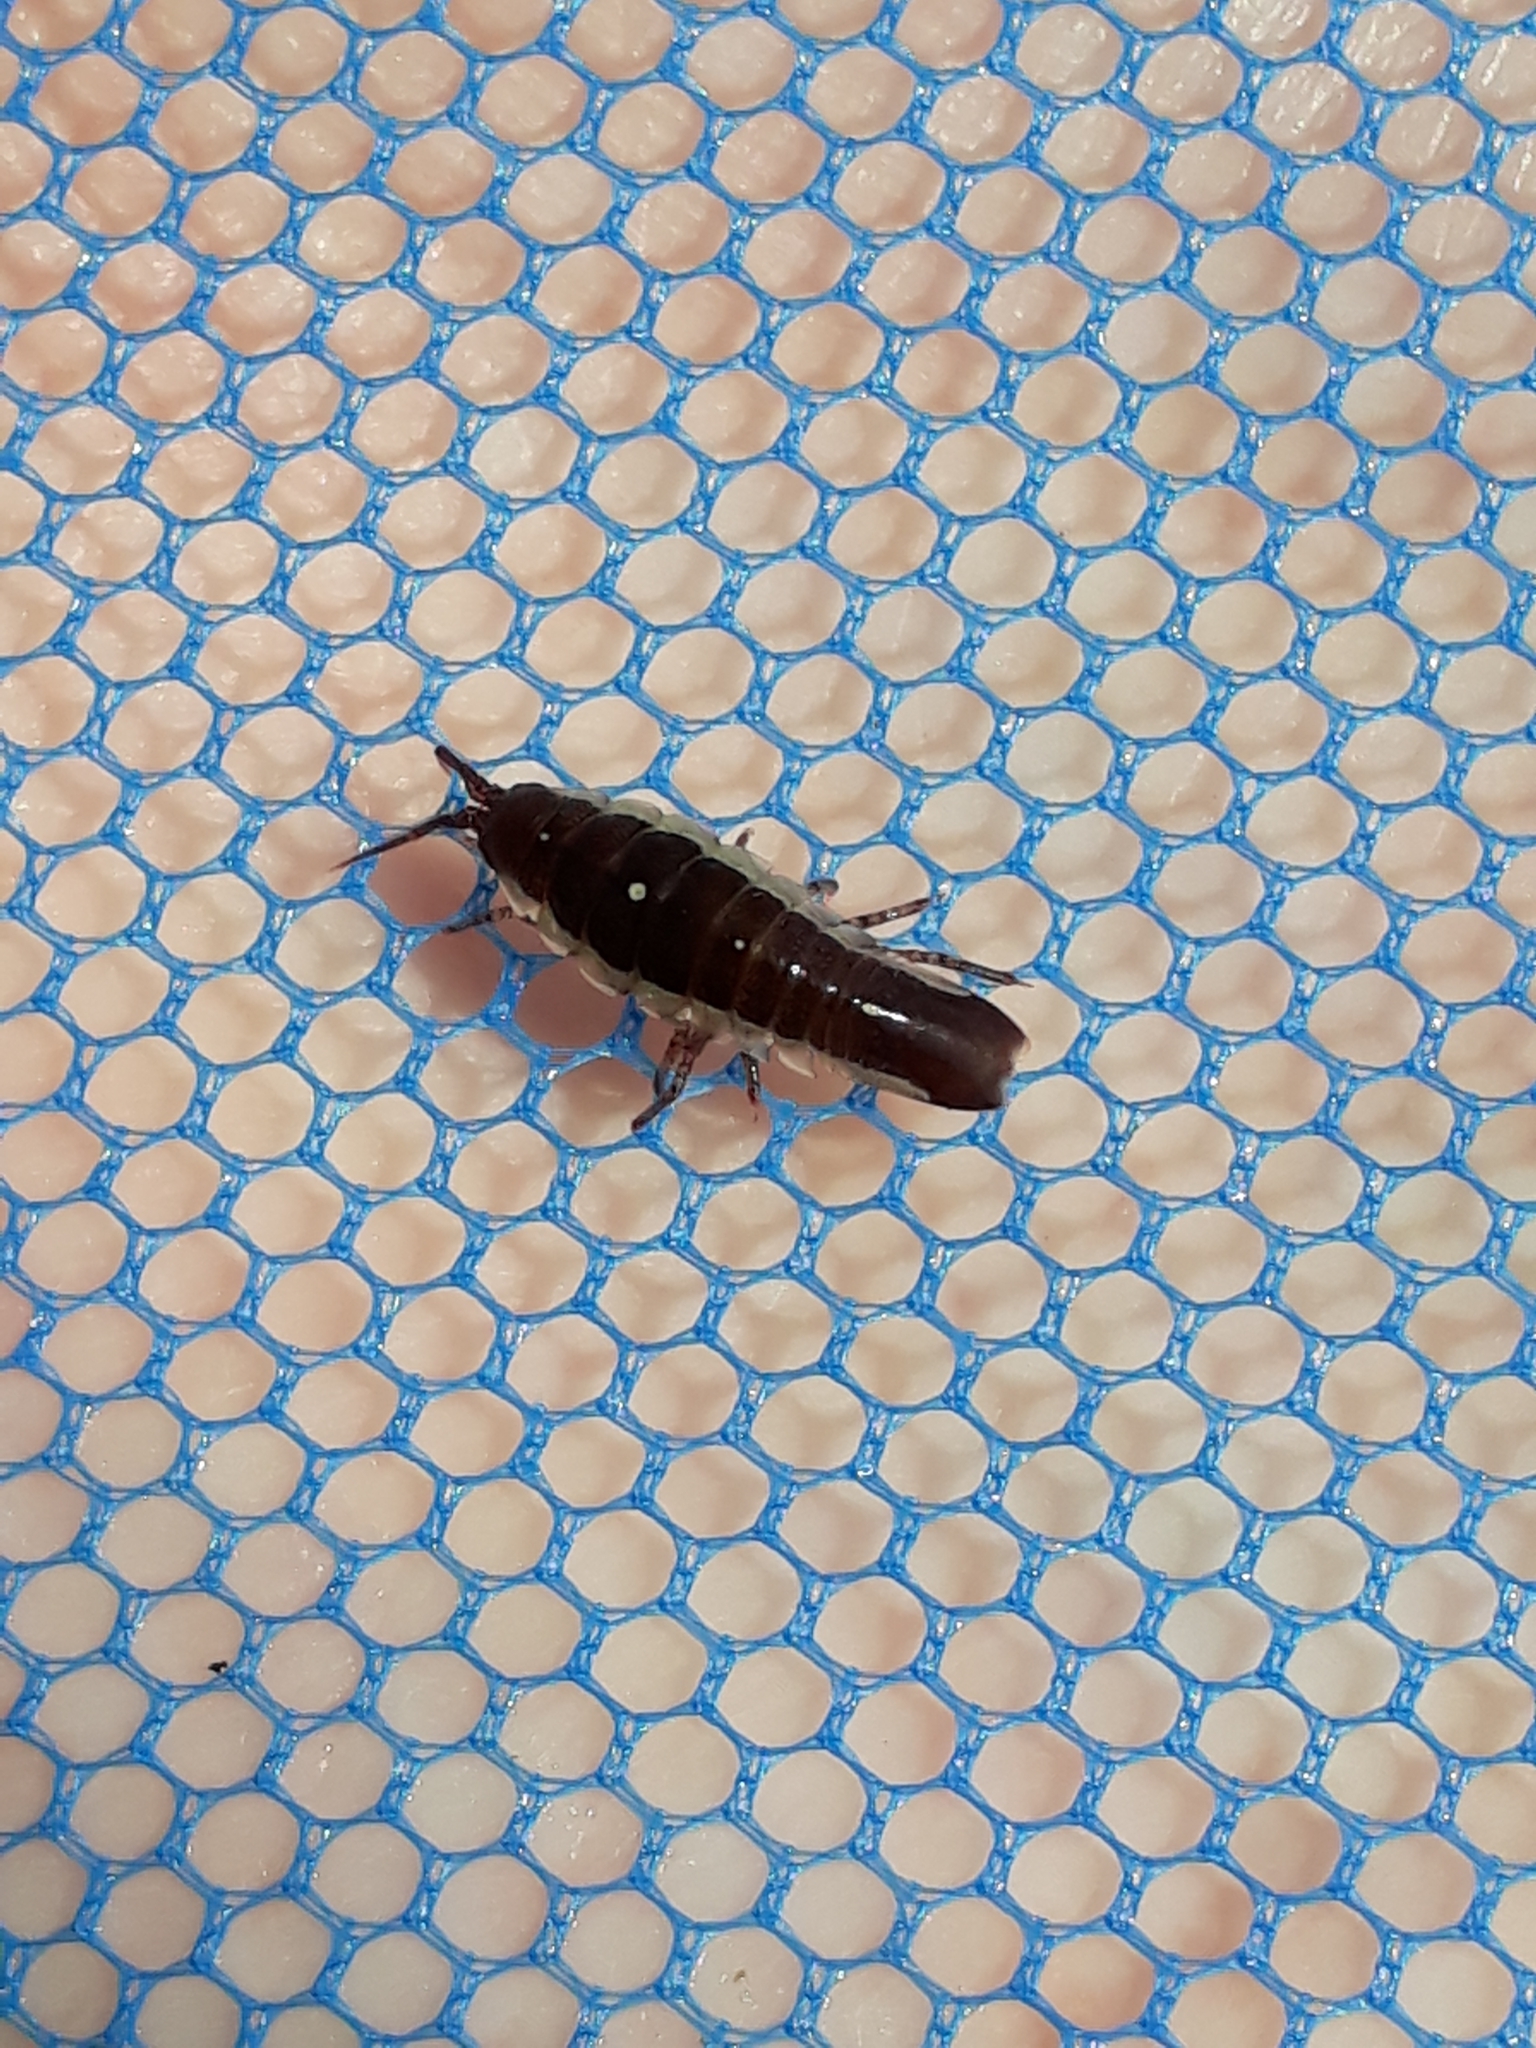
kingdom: Animalia
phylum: Arthropoda
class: Malacostraca
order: Isopoda
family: Idoteidae
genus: Idotea
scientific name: Idotea emarginata
